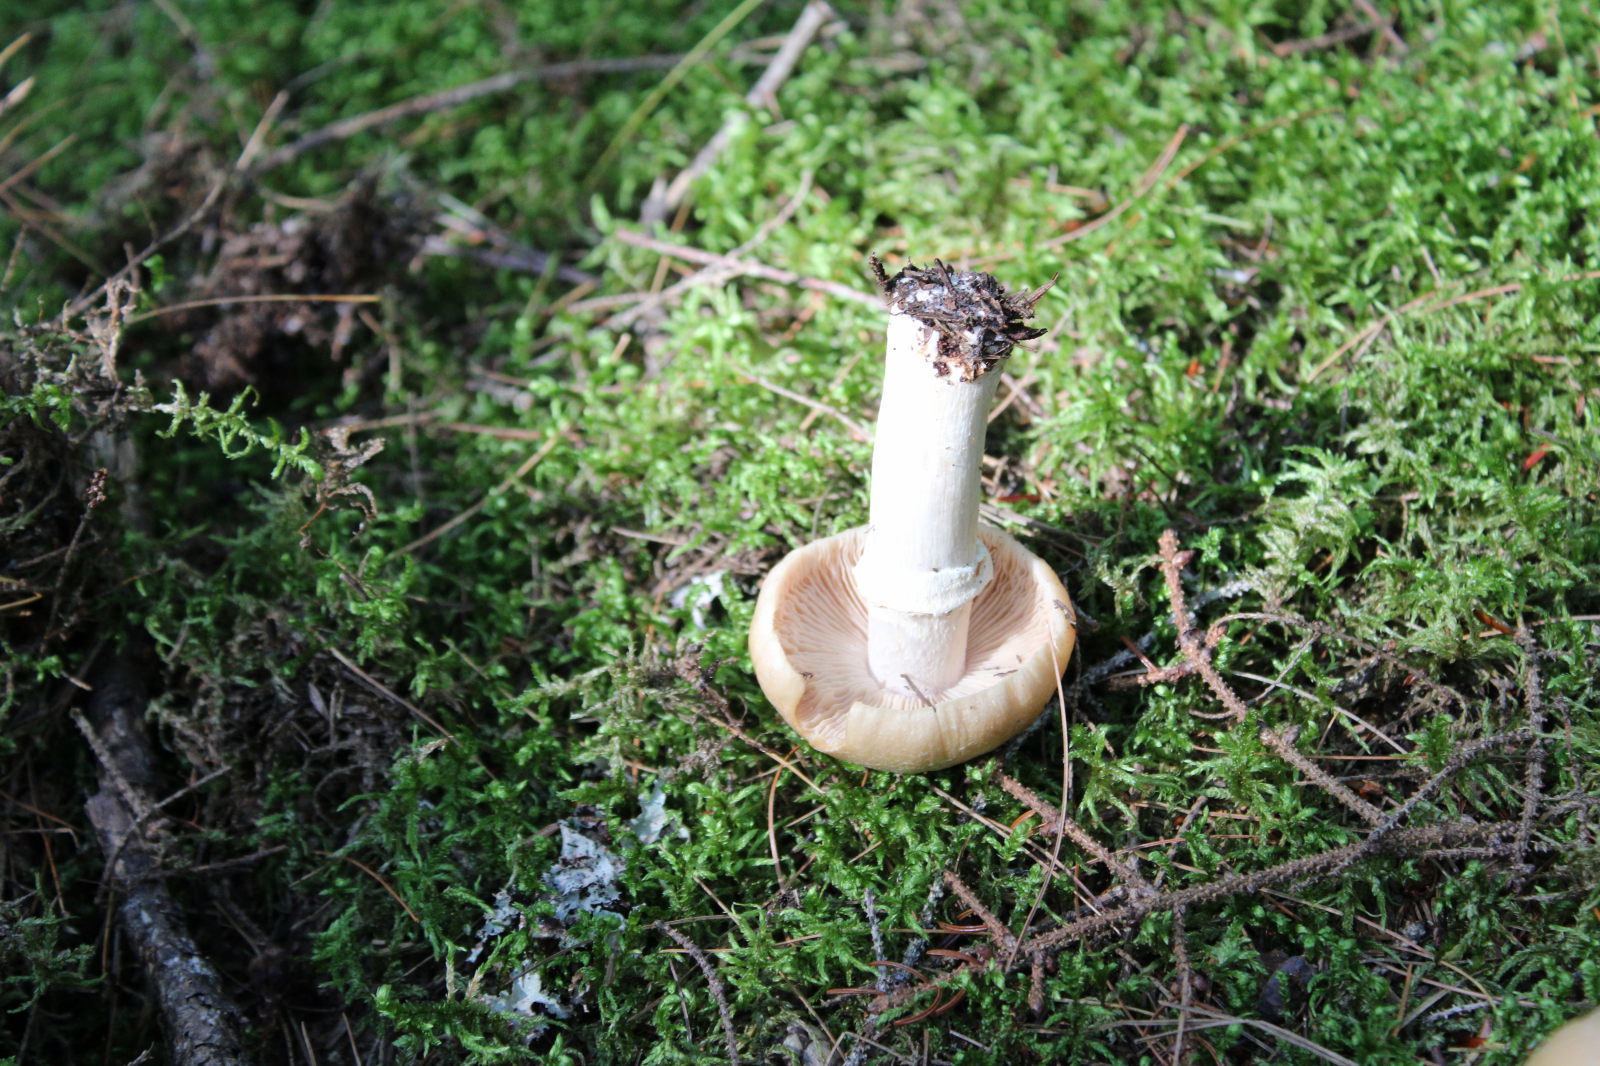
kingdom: Fungi
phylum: Basidiomycota
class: Agaricomycetes
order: Agaricales
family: Cortinariaceae
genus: Cortinarius
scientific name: Cortinarius caperatus
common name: The gypsy
